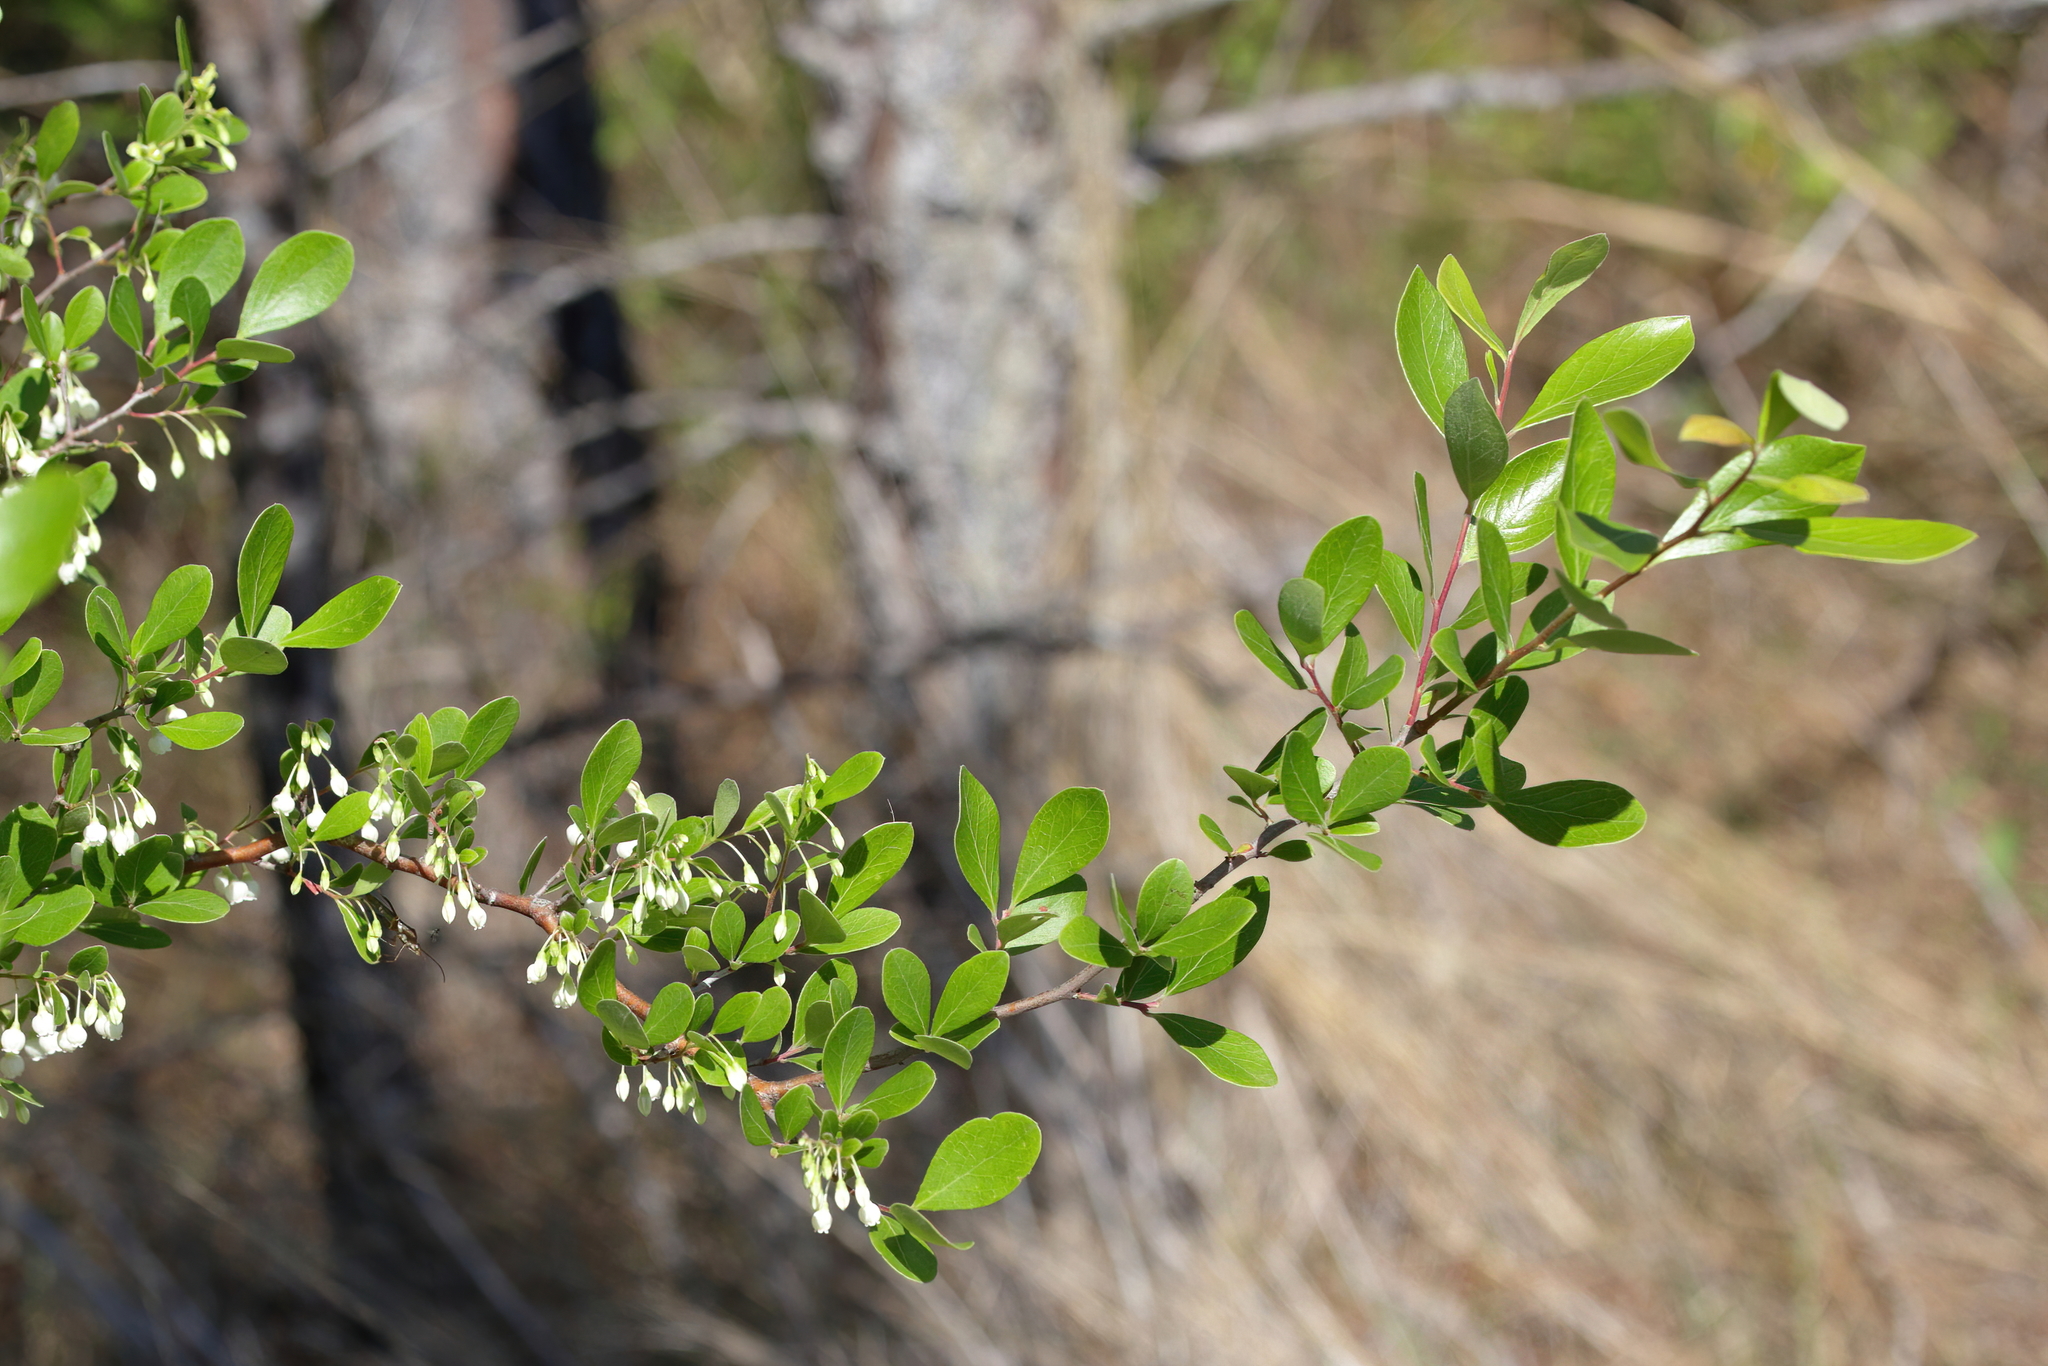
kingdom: Plantae
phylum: Tracheophyta
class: Magnoliopsida
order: Ericales
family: Ericaceae
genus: Vaccinium
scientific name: Vaccinium arboreum
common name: Farkleberry
